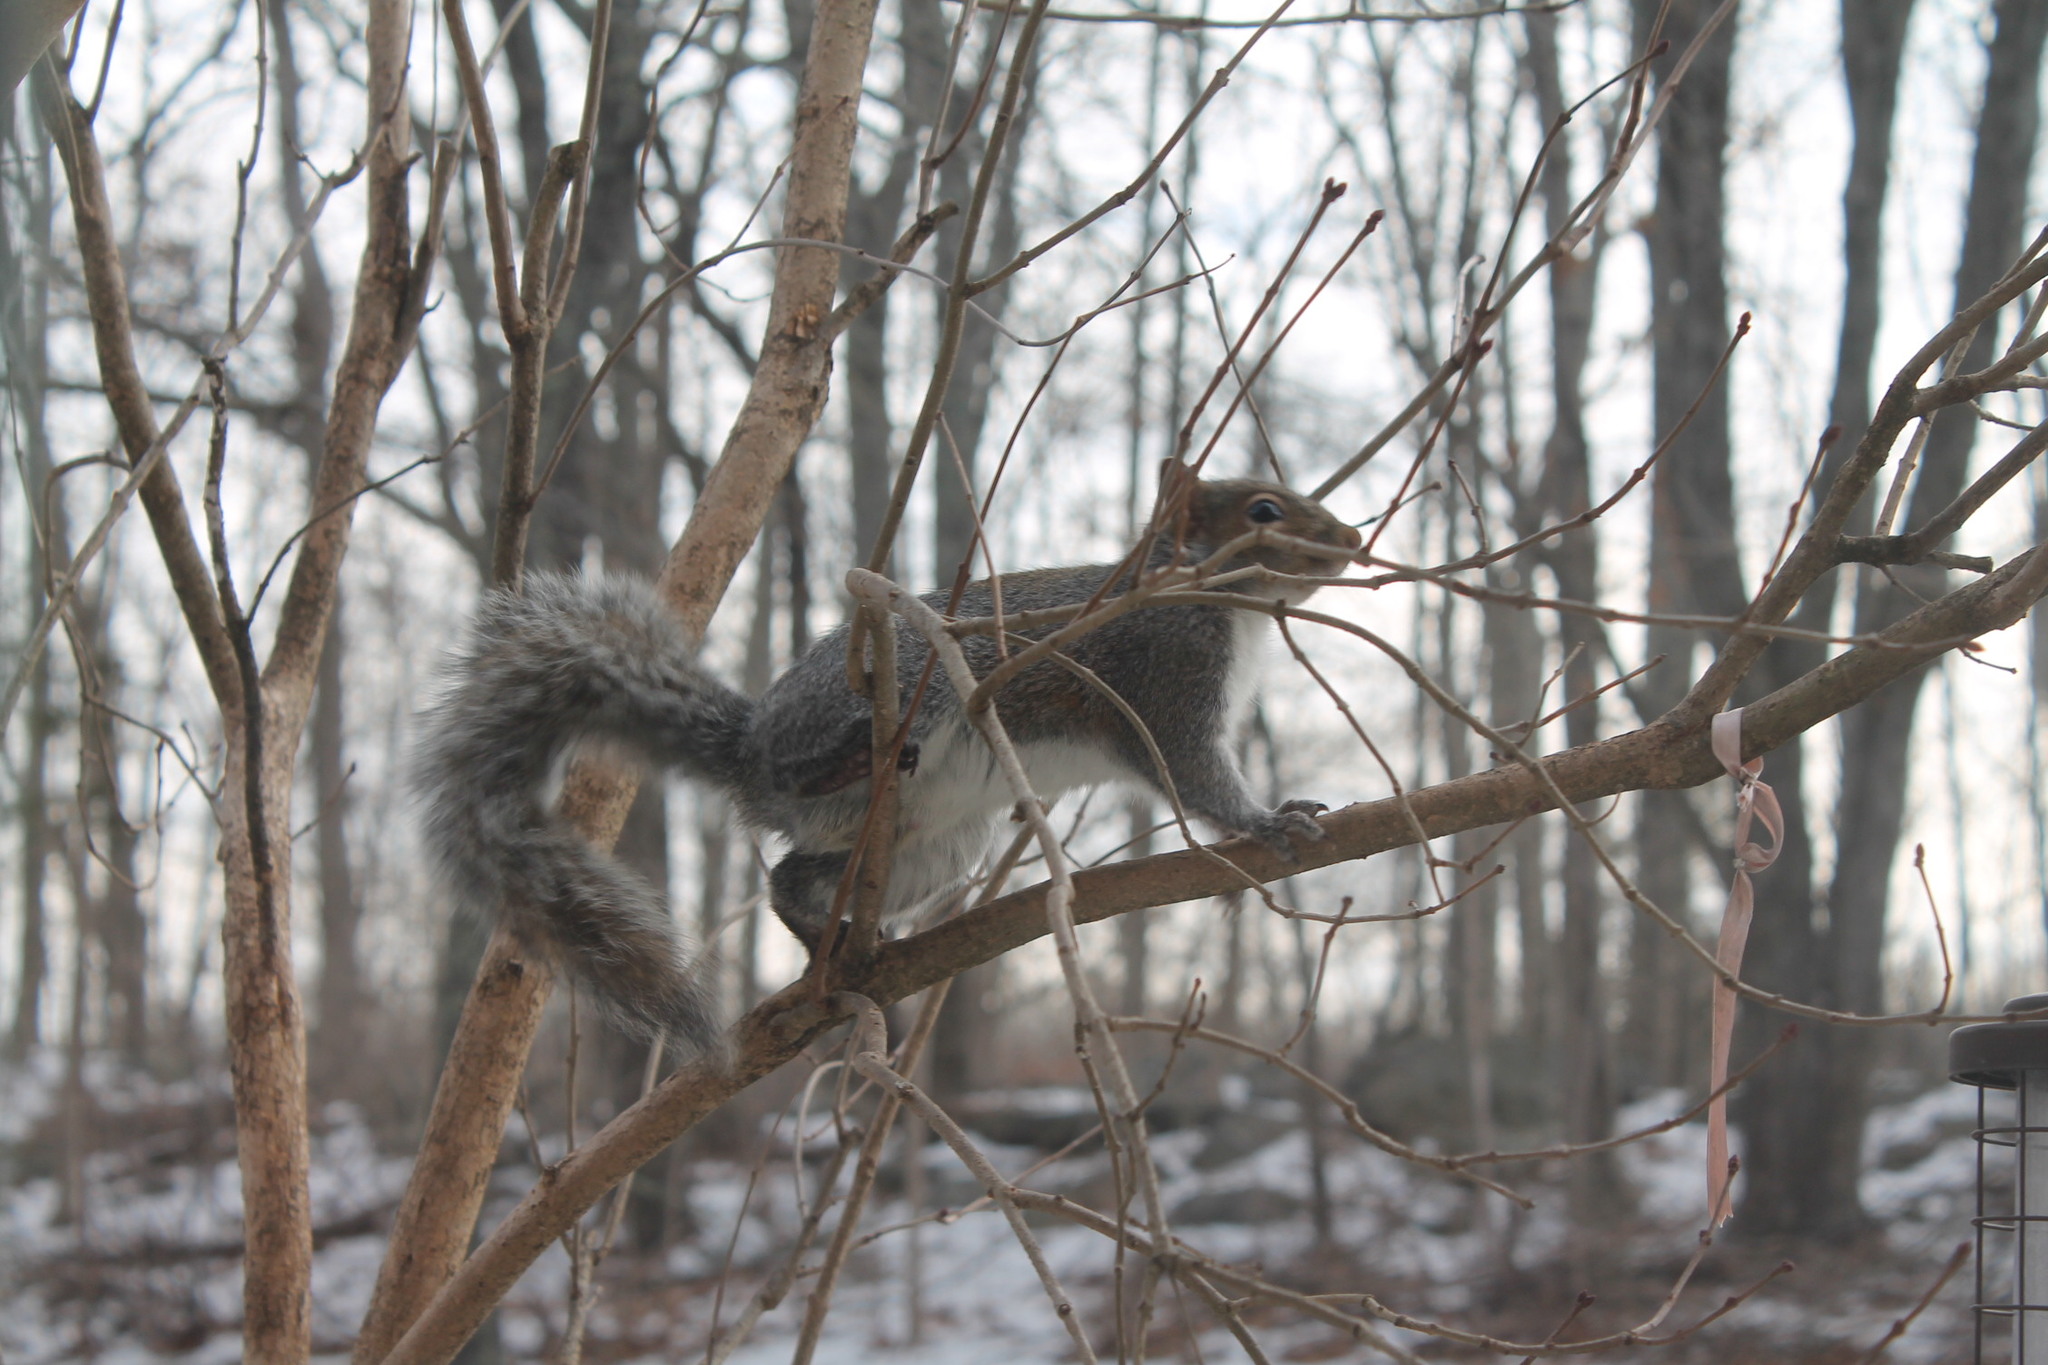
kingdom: Animalia
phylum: Chordata
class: Mammalia
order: Rodentia
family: Sciuridae
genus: Sciurus
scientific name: Sciurus carolinensis
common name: Eastern gray squirrel
